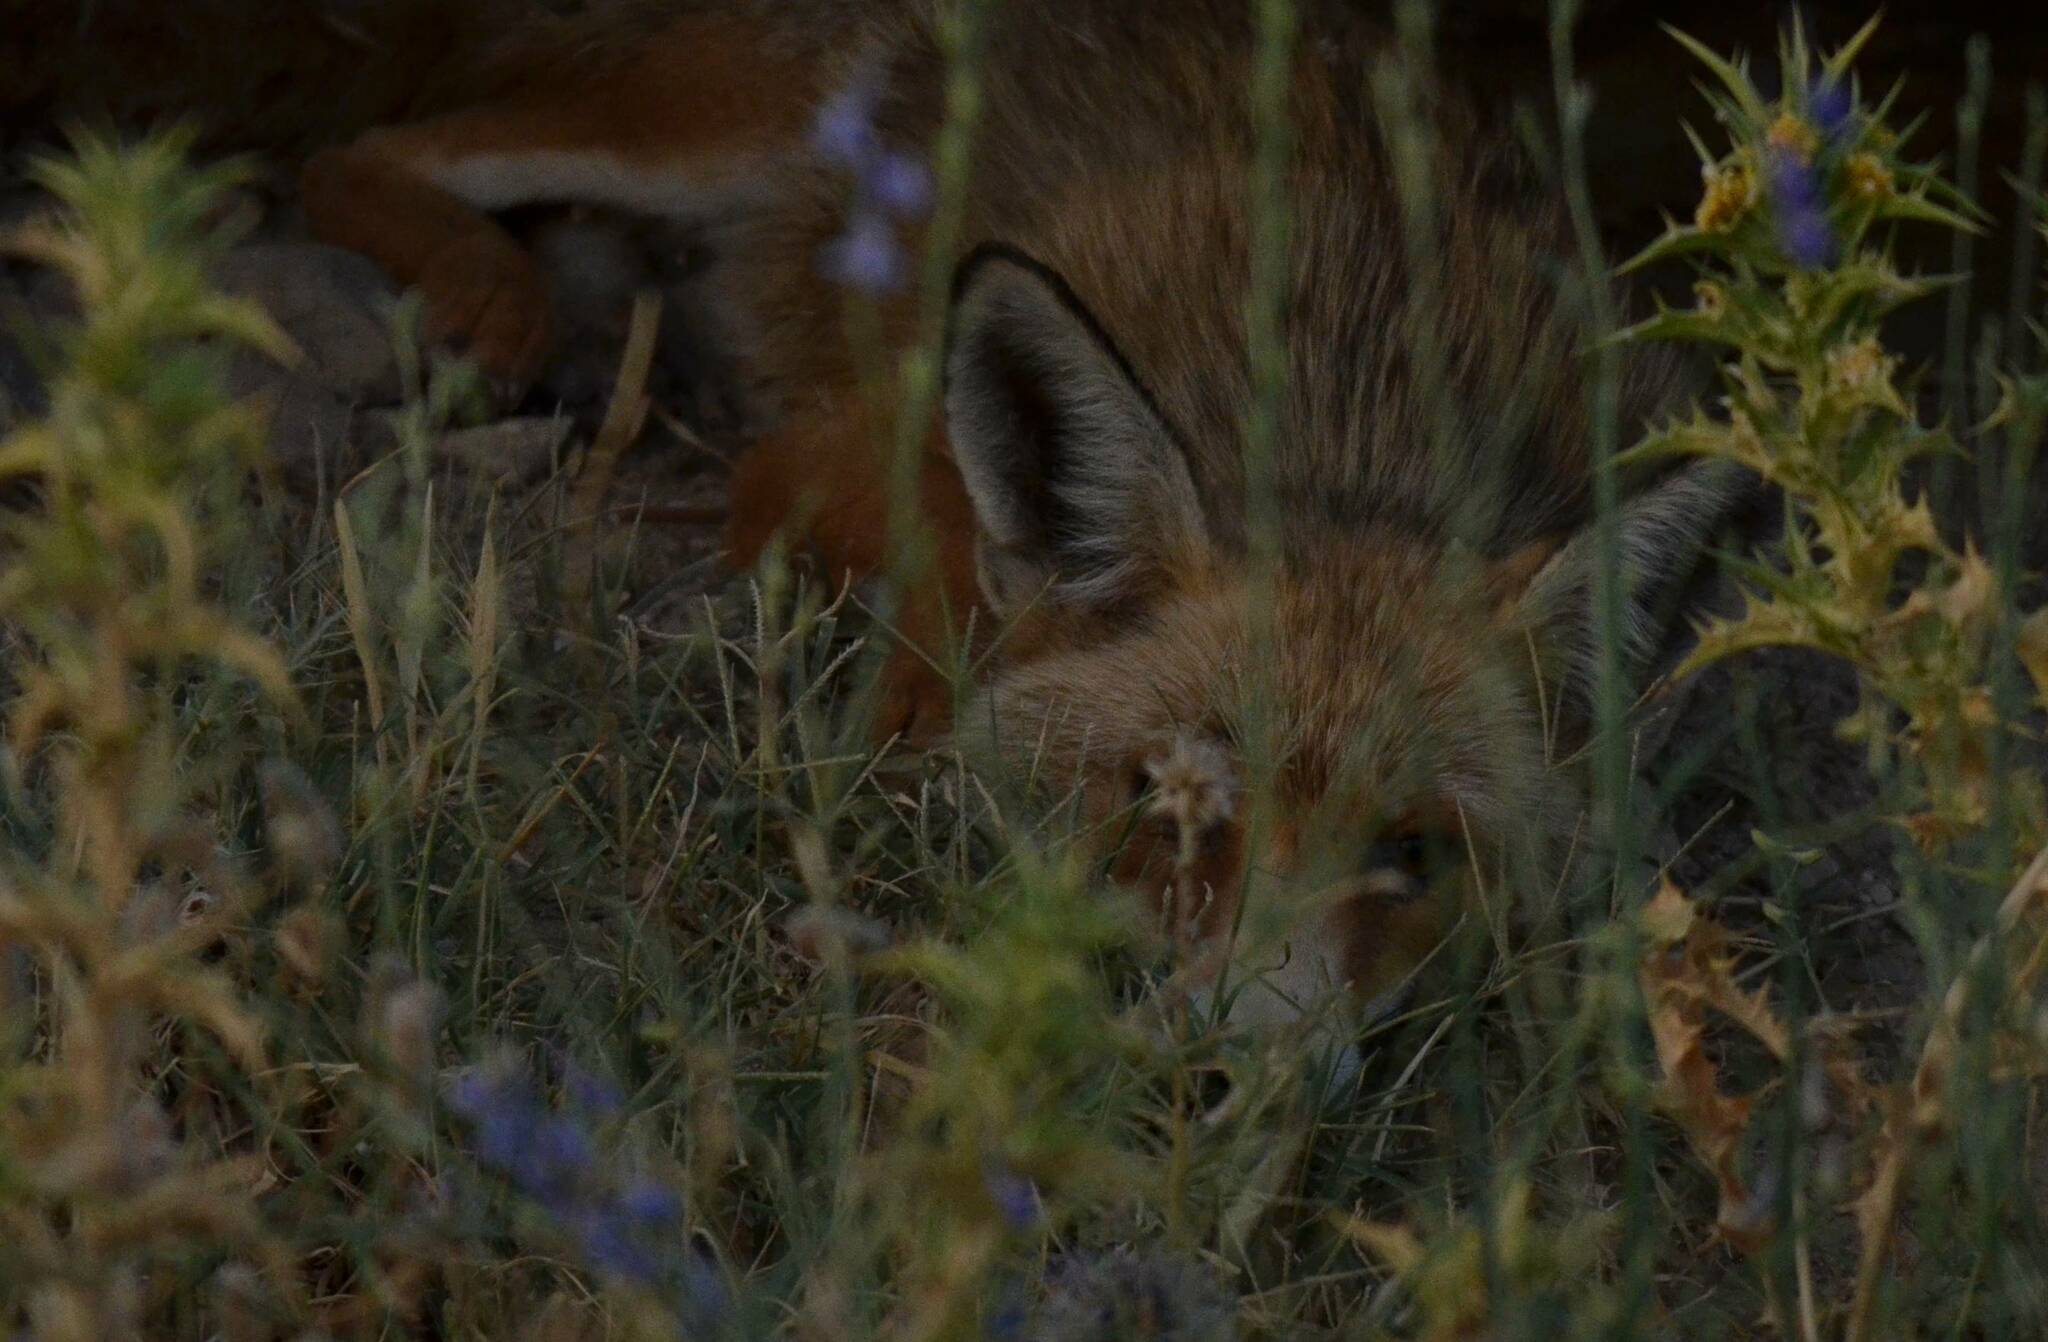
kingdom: Animalia
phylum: Chordata
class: Mammalia
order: Carnivora
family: Canidae
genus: Vulpes
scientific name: Vulpes vulpes
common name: Red fox
